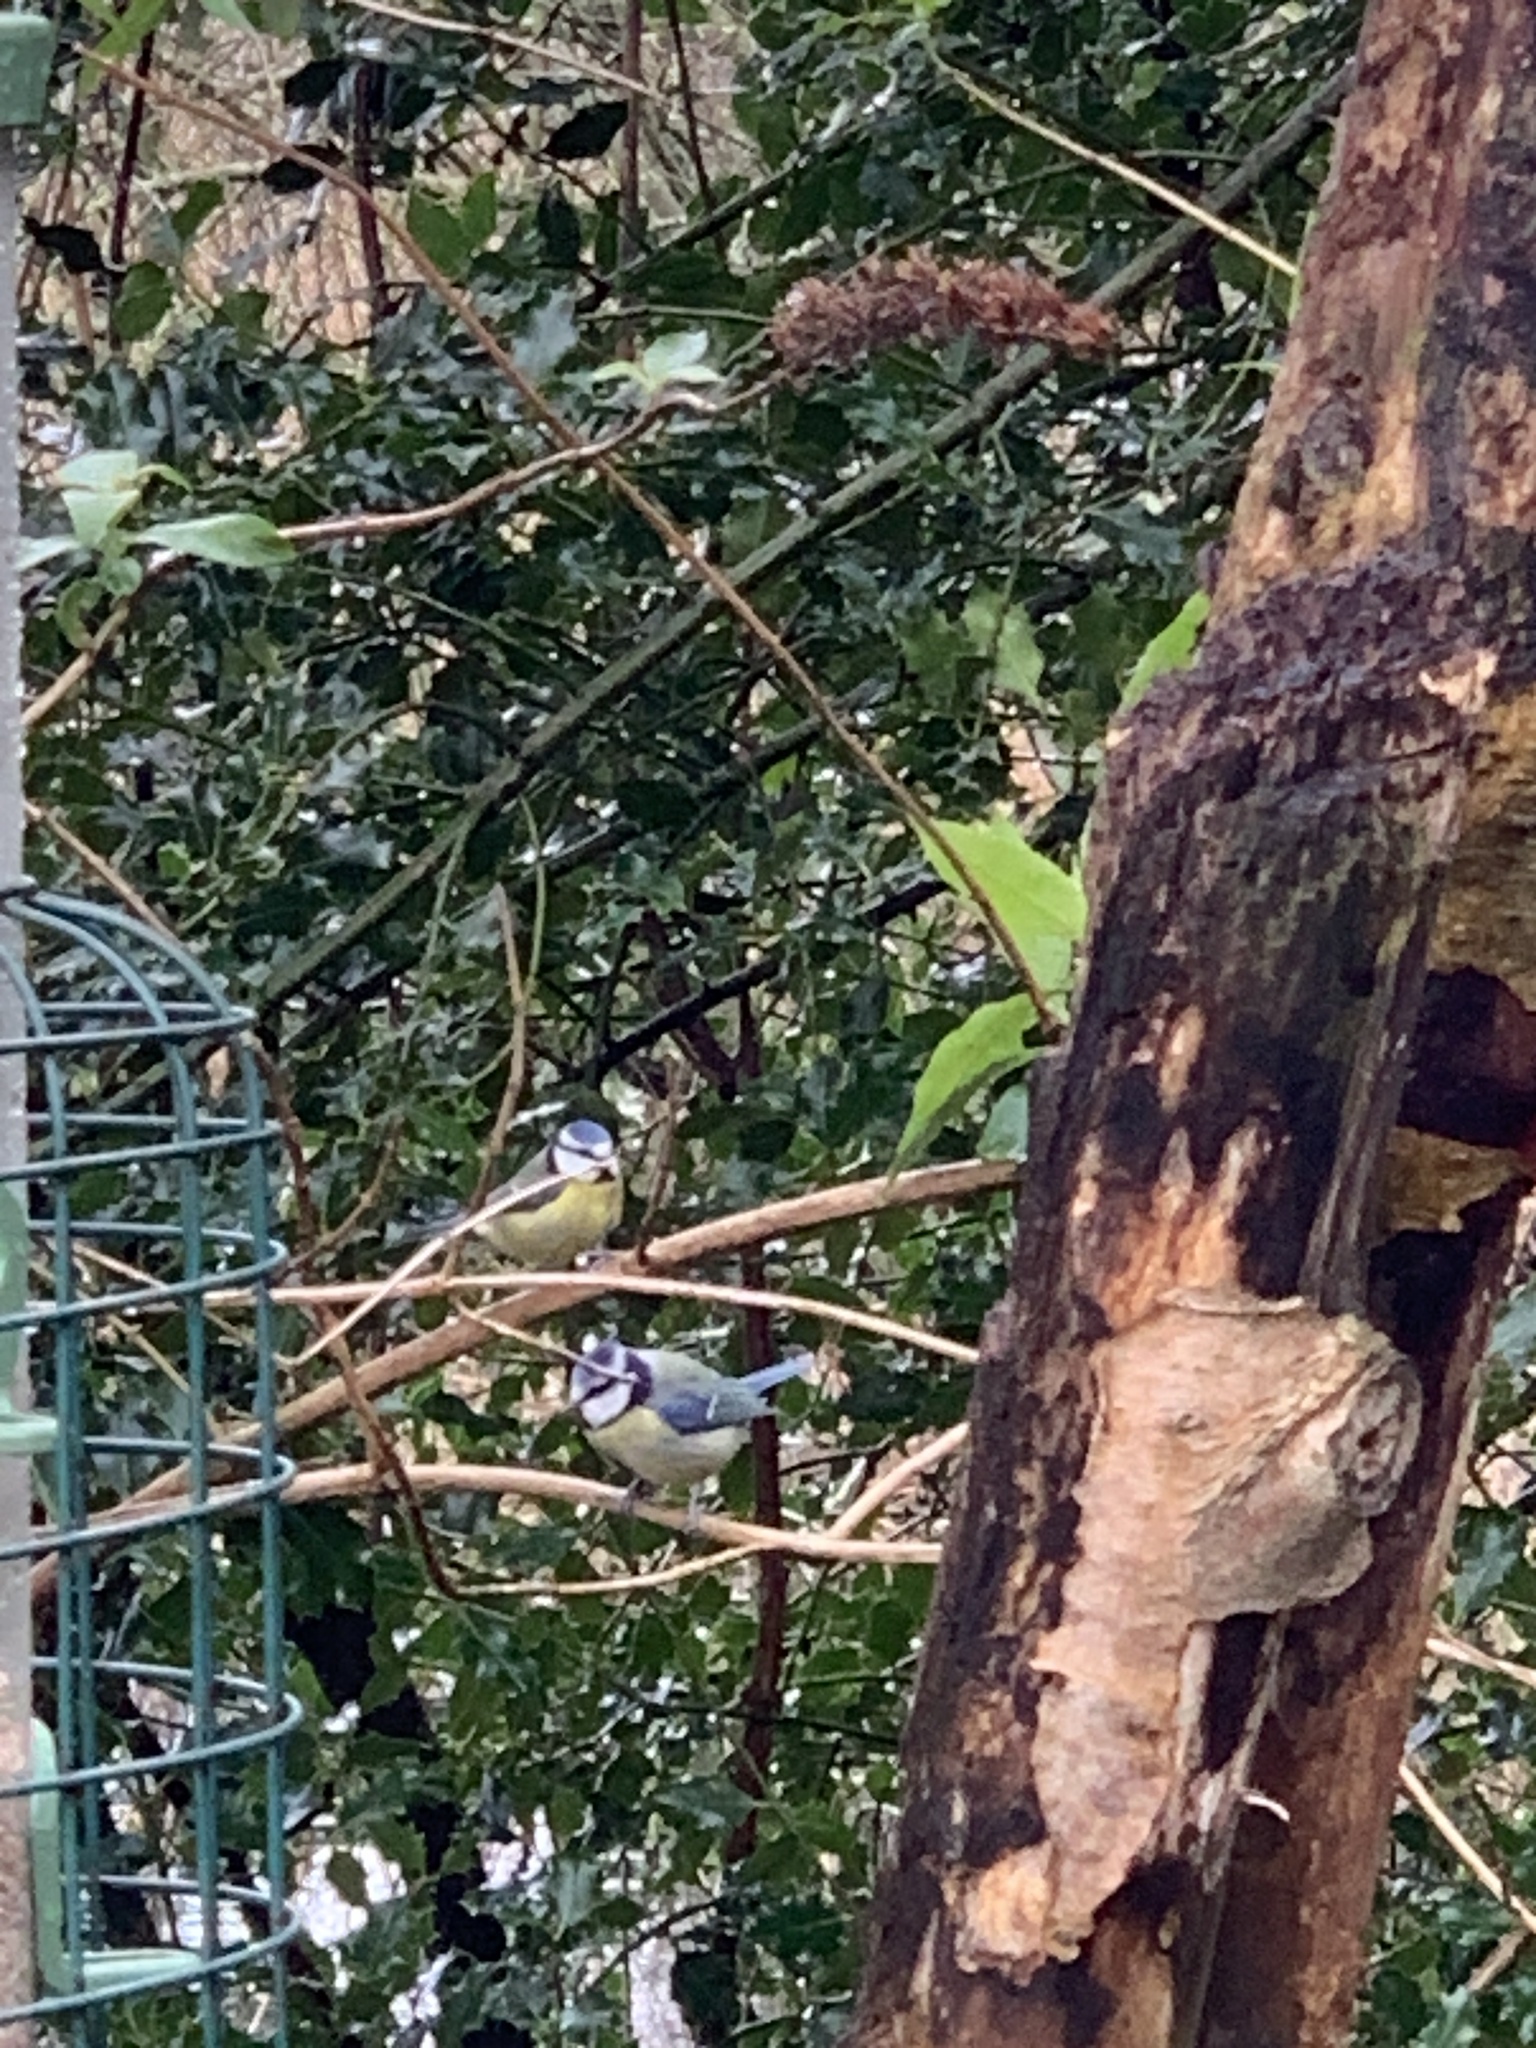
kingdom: Animalia
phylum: Chordata
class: Aves
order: Passeriformes
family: Paridae
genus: Cyanistes
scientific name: Cyanistes caeruleus
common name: Eurasian blue tit
